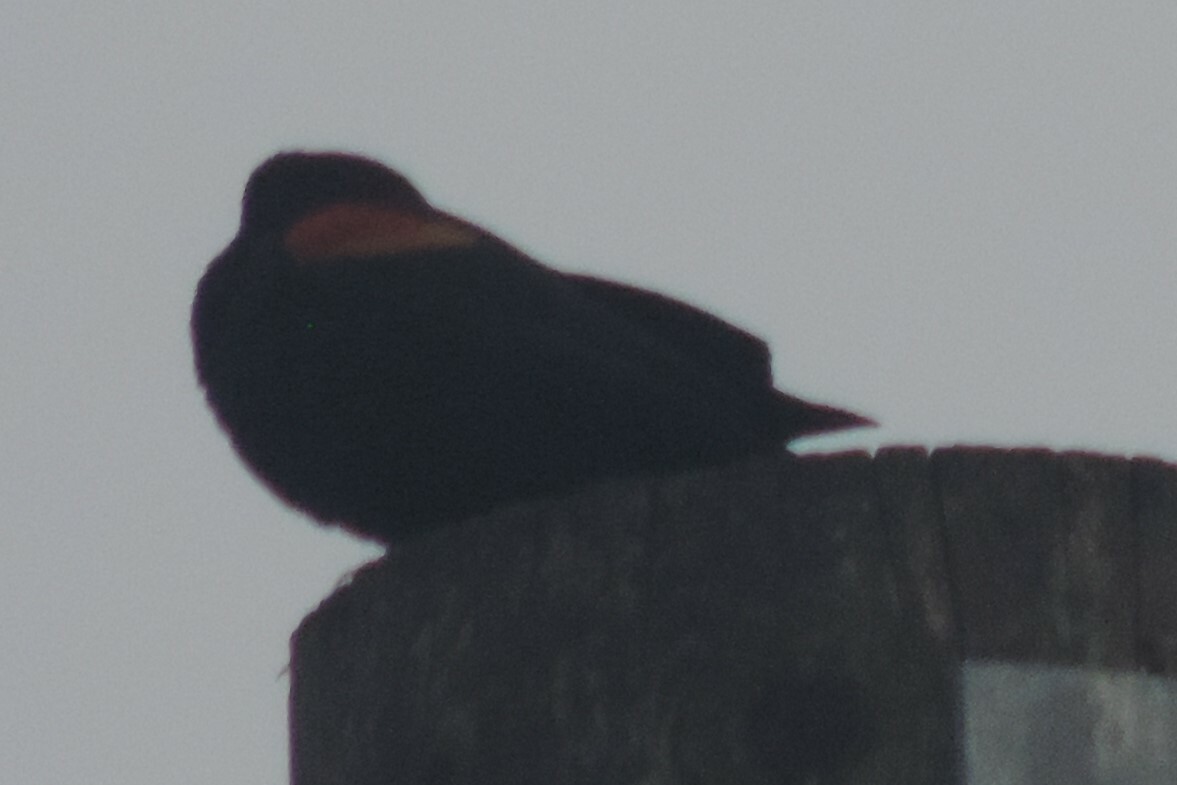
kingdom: Animalia
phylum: Chordata
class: Aves
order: Passeriformes
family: Icteridae
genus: Agelaius
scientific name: Agelaius phoeniceus
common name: Red-winged blackbird
